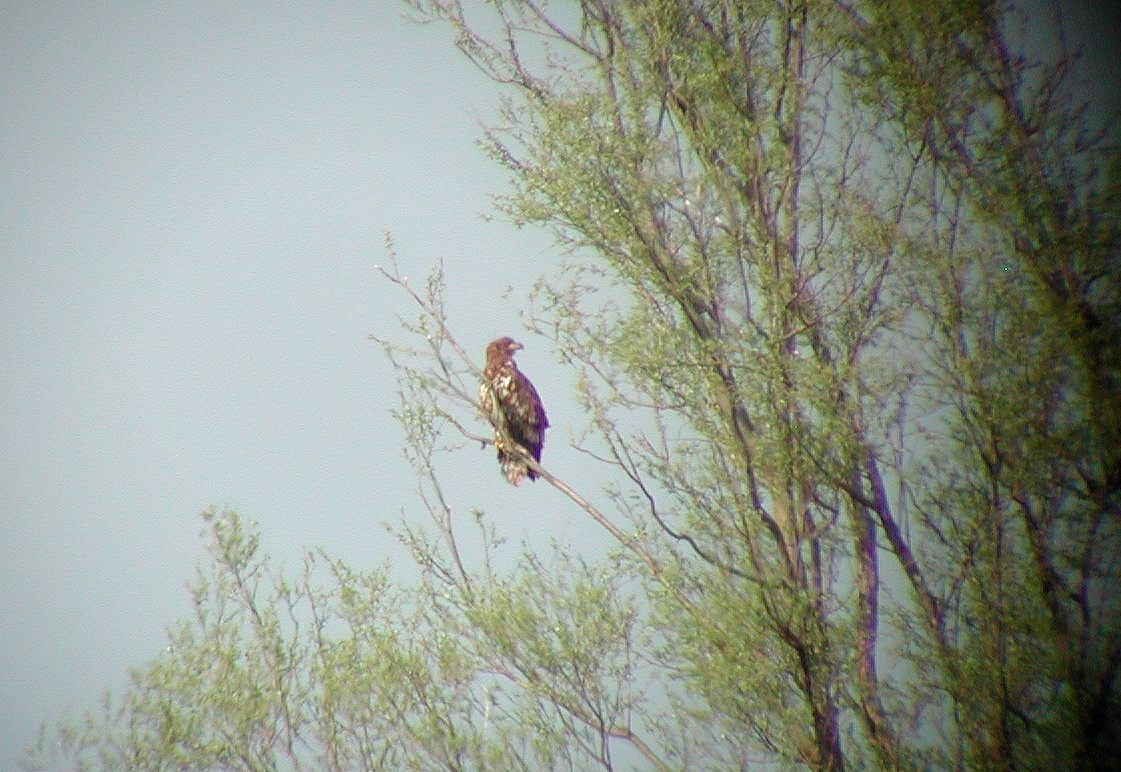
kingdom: Animalia
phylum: Chordata
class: Aves
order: Accipitriformes
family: Accipitridae
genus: Haliaeetus
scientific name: Haliaeetus albicilla
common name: White-tailed eagle
